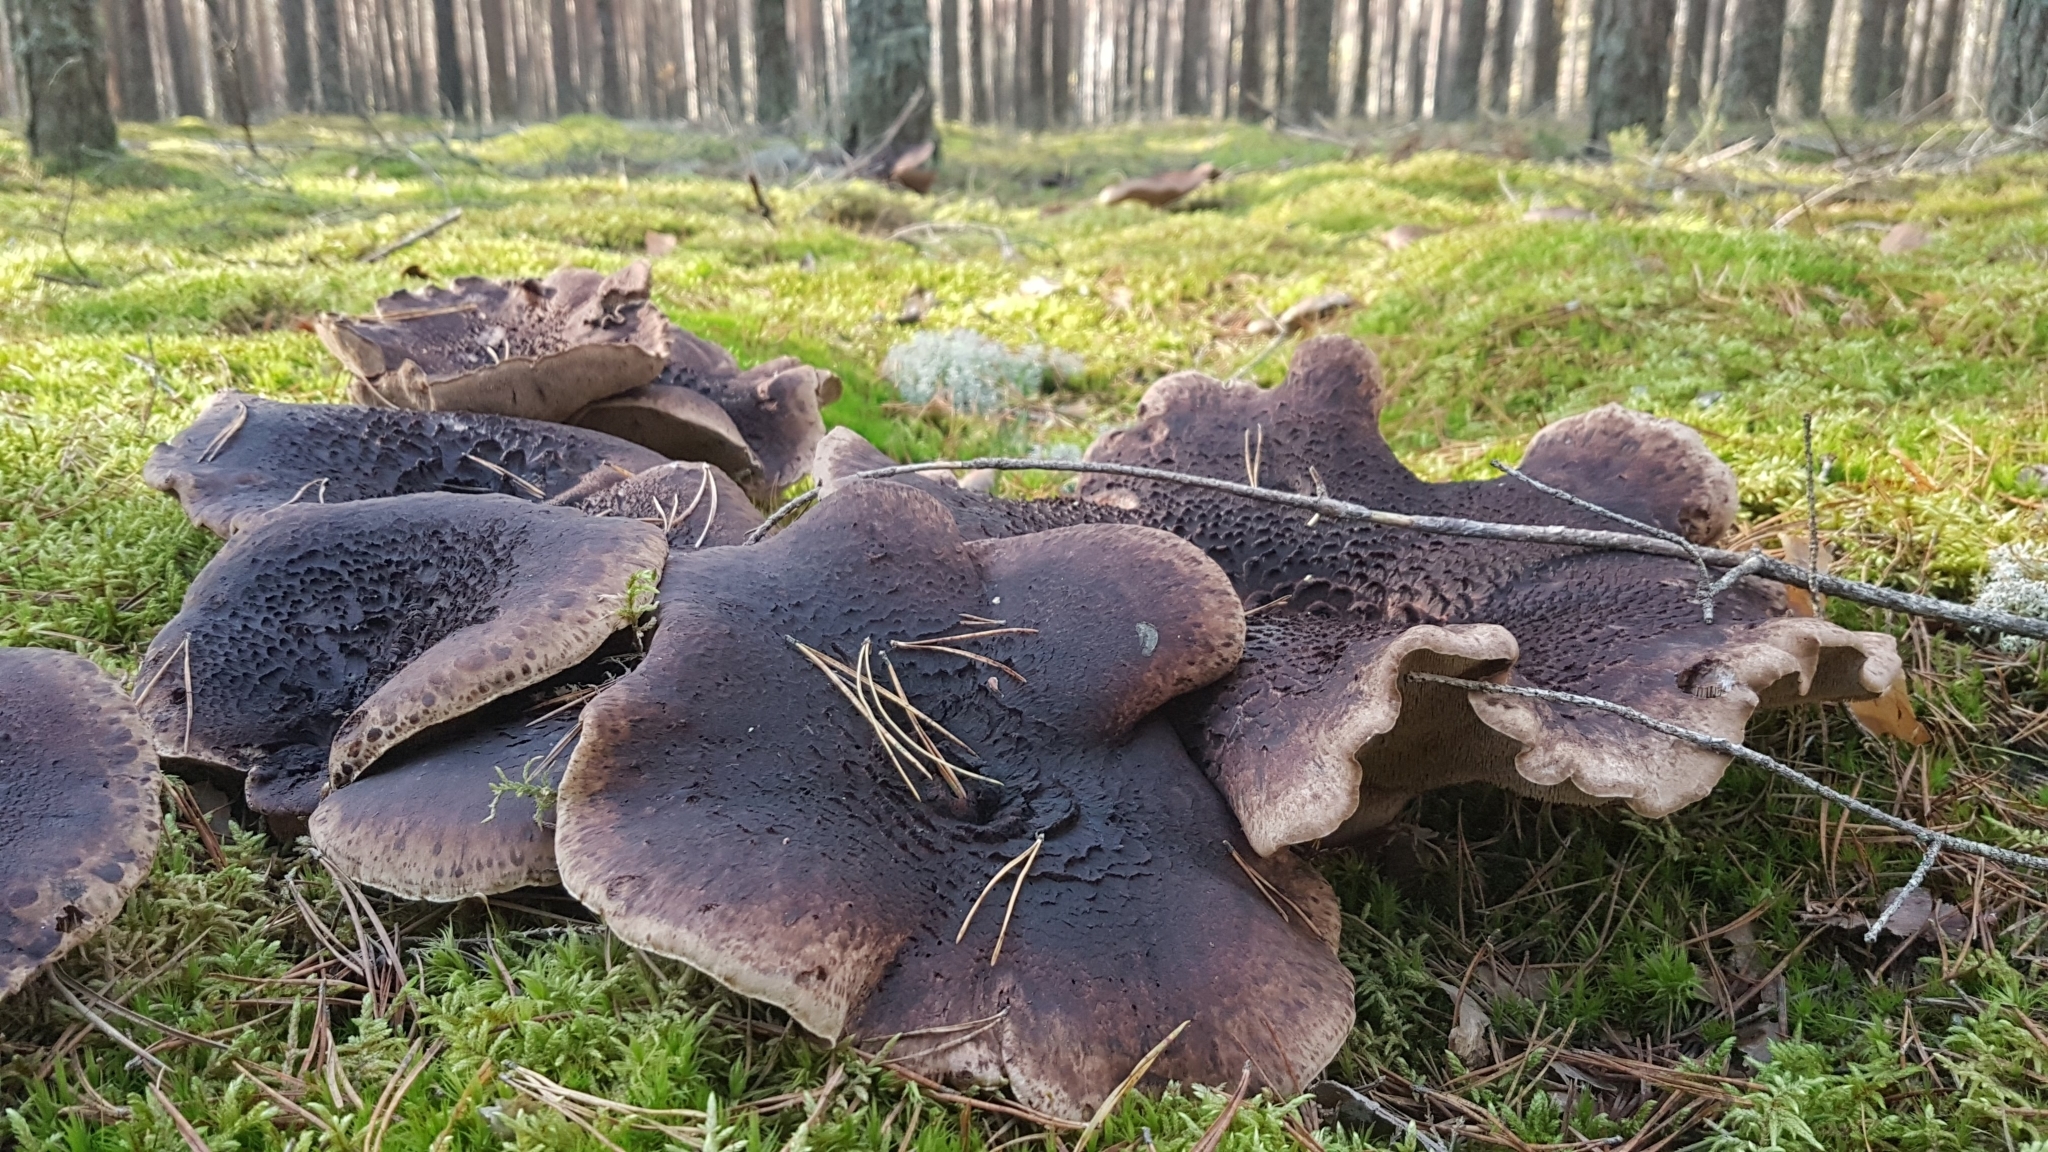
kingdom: Fungi
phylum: Basidiomycota
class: Agaricomycetes
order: Thelephorales
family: Bankeraceae
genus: Sarcodon
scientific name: Sarcodon squamosus
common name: Scaly tooth
